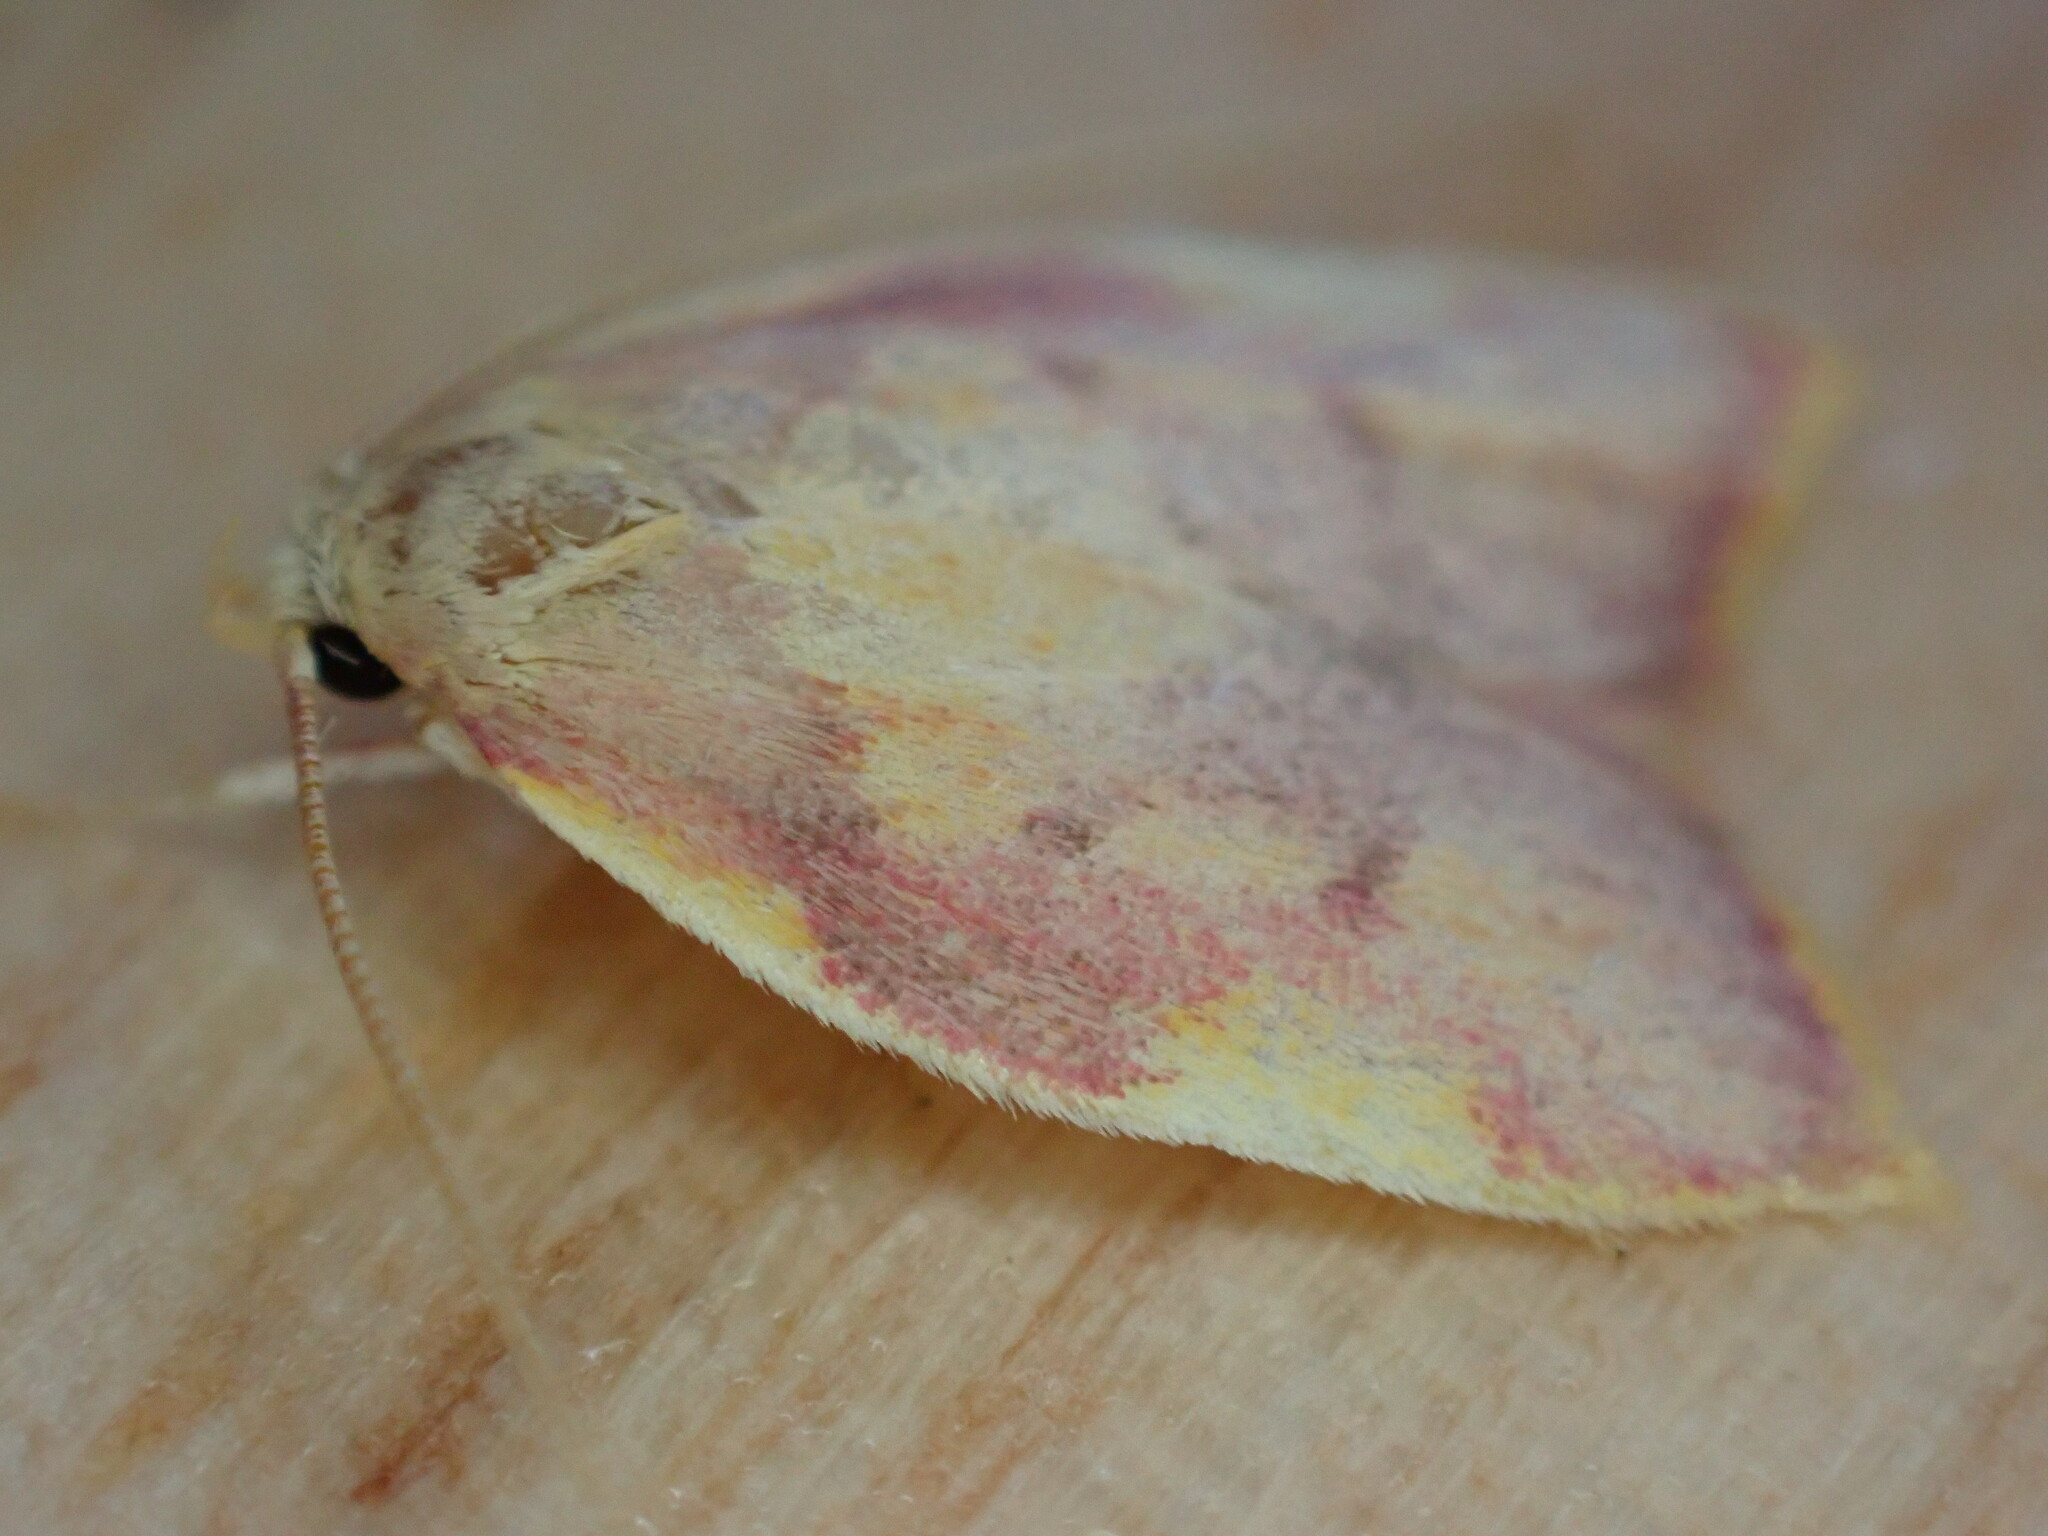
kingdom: Animalia
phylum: Arthropoda
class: Insecta
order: Lepidoptera
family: Peleopodidae
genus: Carcina
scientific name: Carcina quercana
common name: Moth
